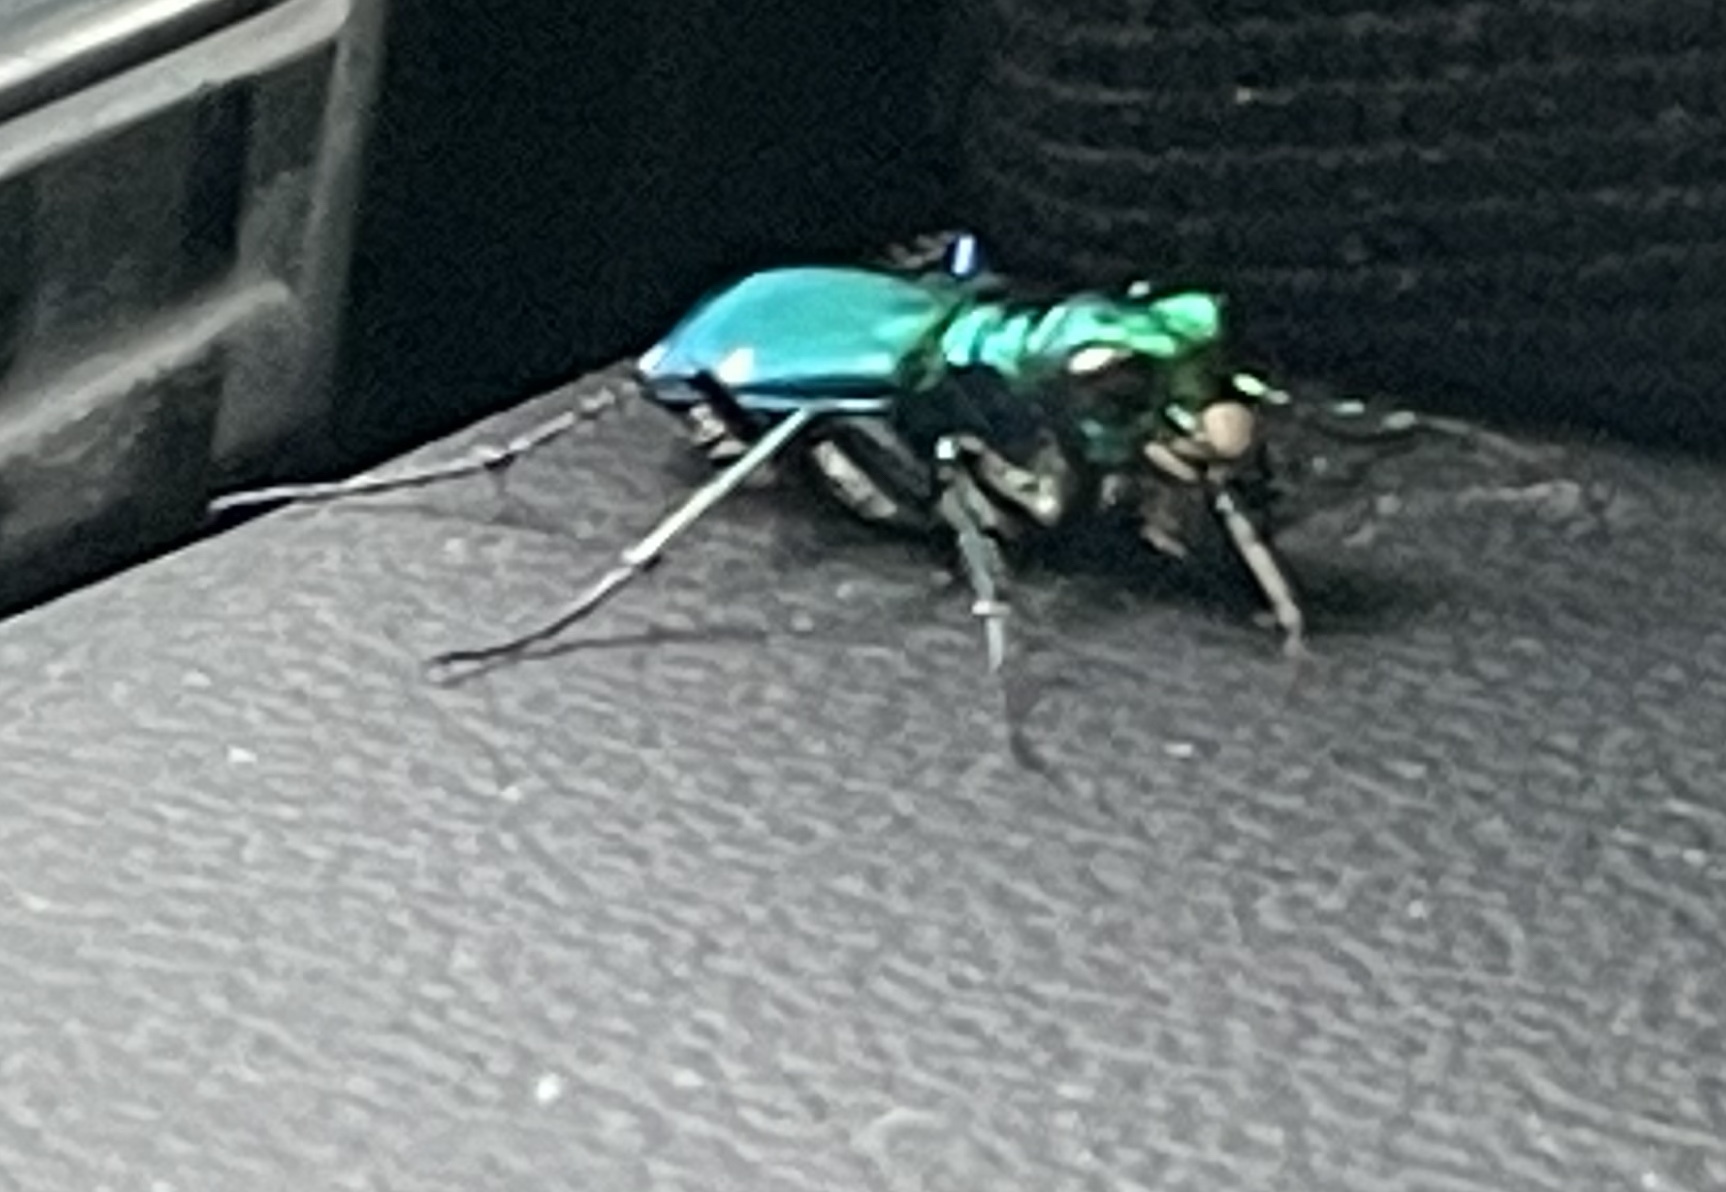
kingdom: Animalia
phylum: Arthropoda
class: Insecta
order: Coleoptera
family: Carabidae
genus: Cicindela
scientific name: Cicindela sexguttata
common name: Six-spotted tiger beetle
